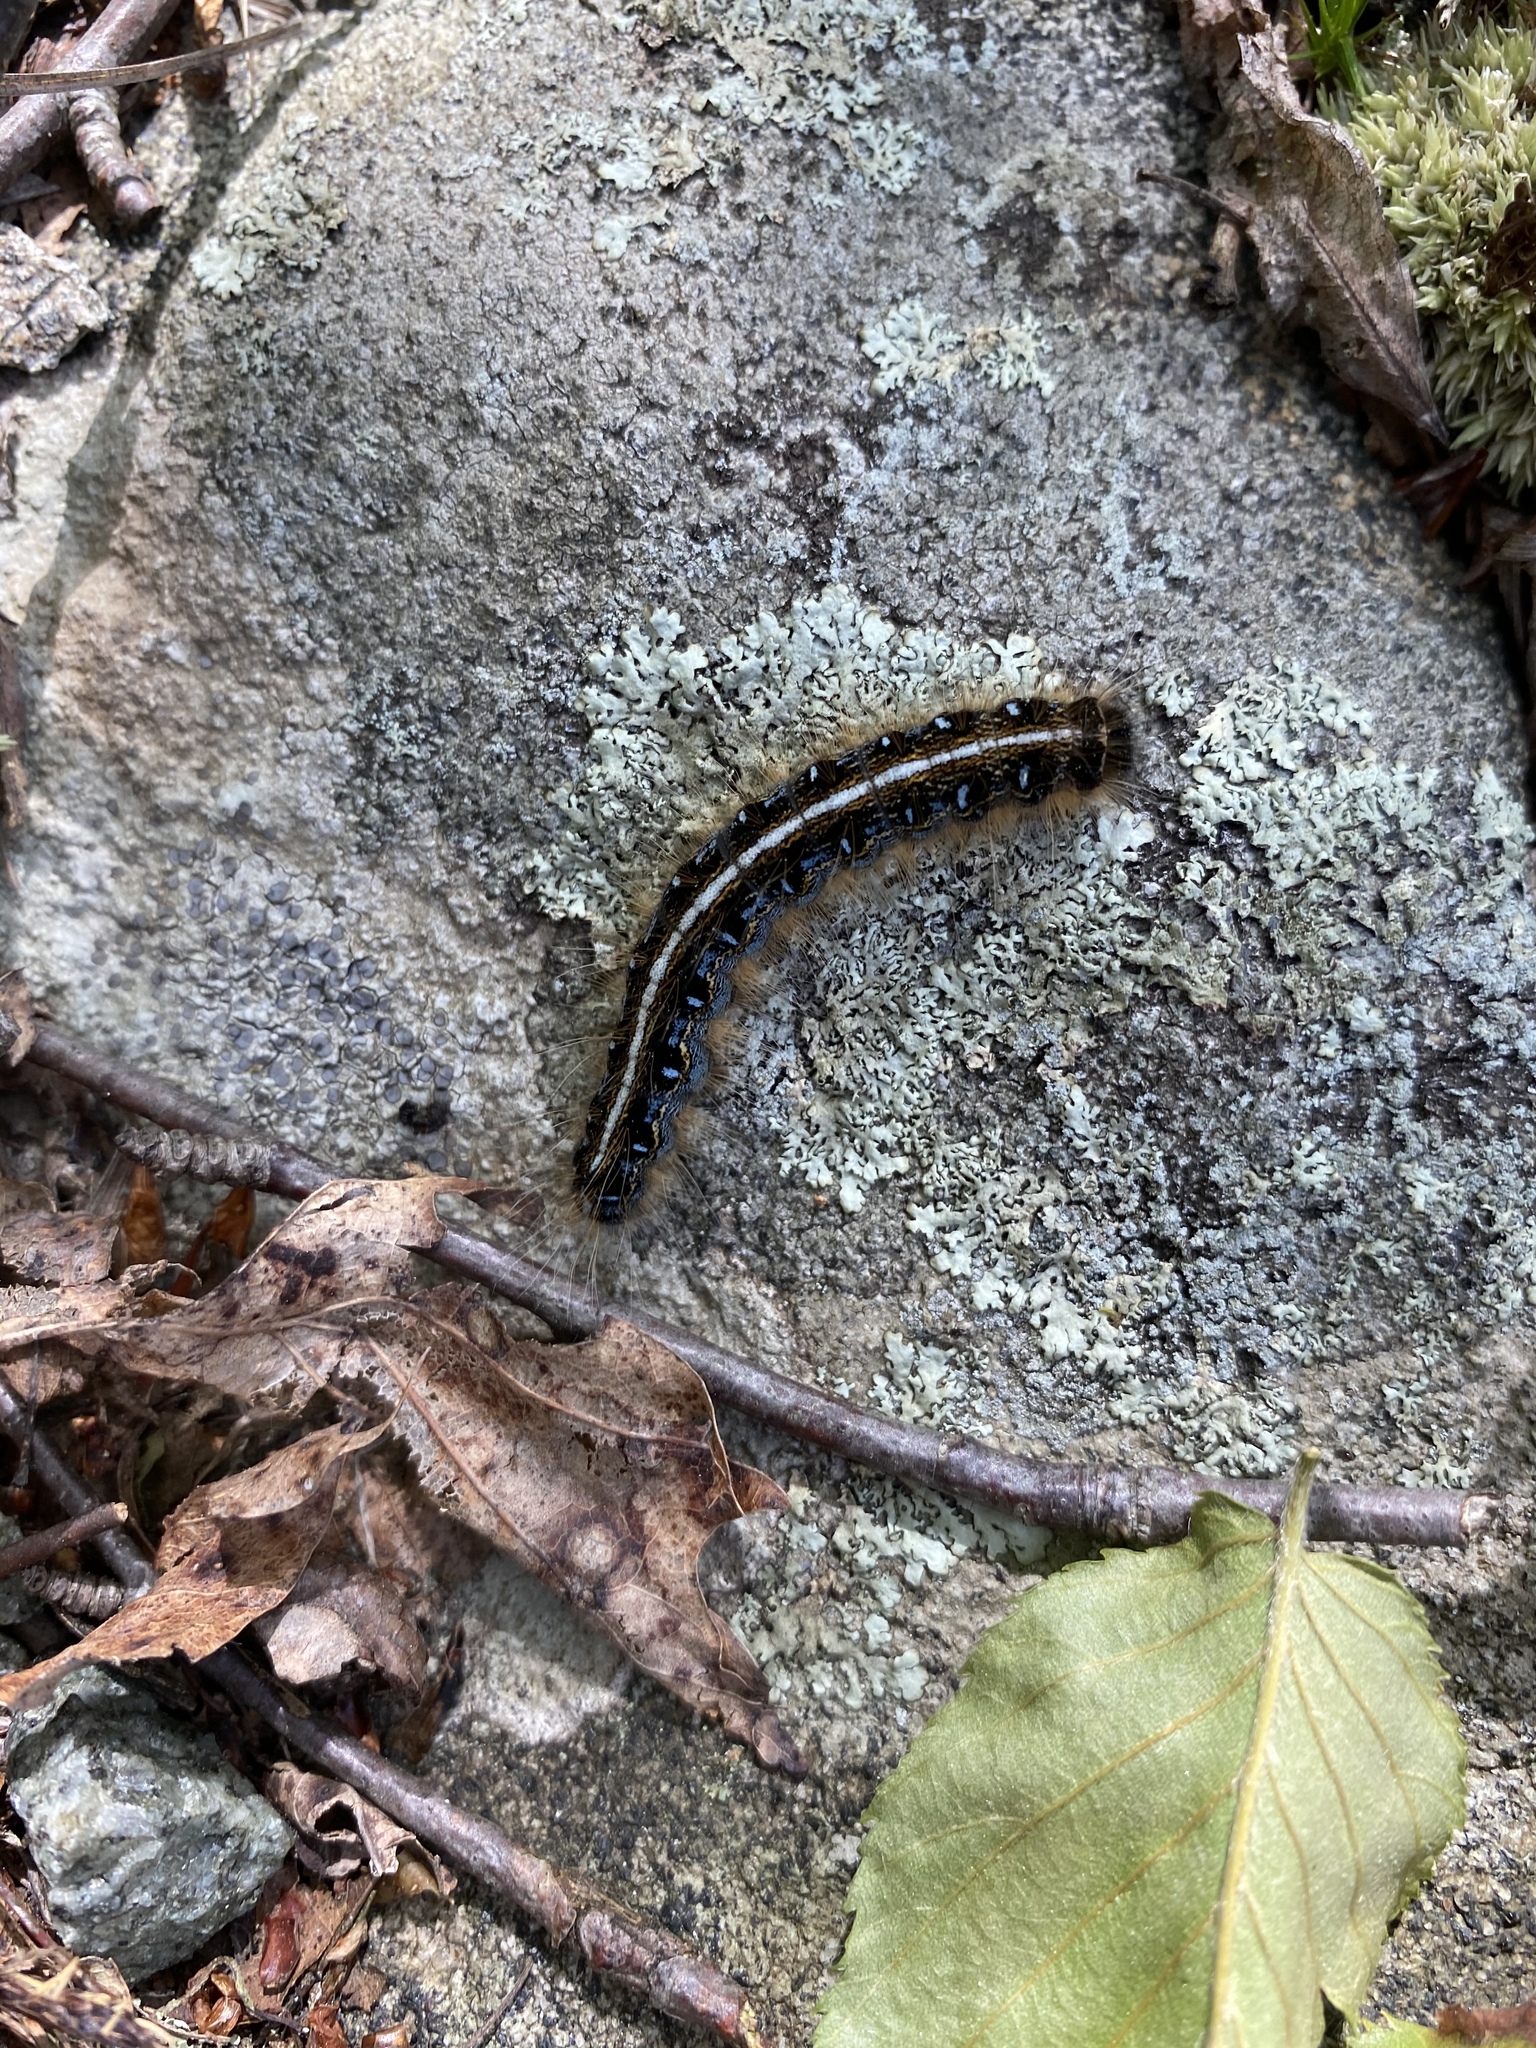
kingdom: Animalia
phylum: Arthropoda
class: Insecta
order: Lepidoptera
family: Lasiocampidae
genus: Malacosoma
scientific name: Malacosoma americana
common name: Eastern tent caterpillar moth
